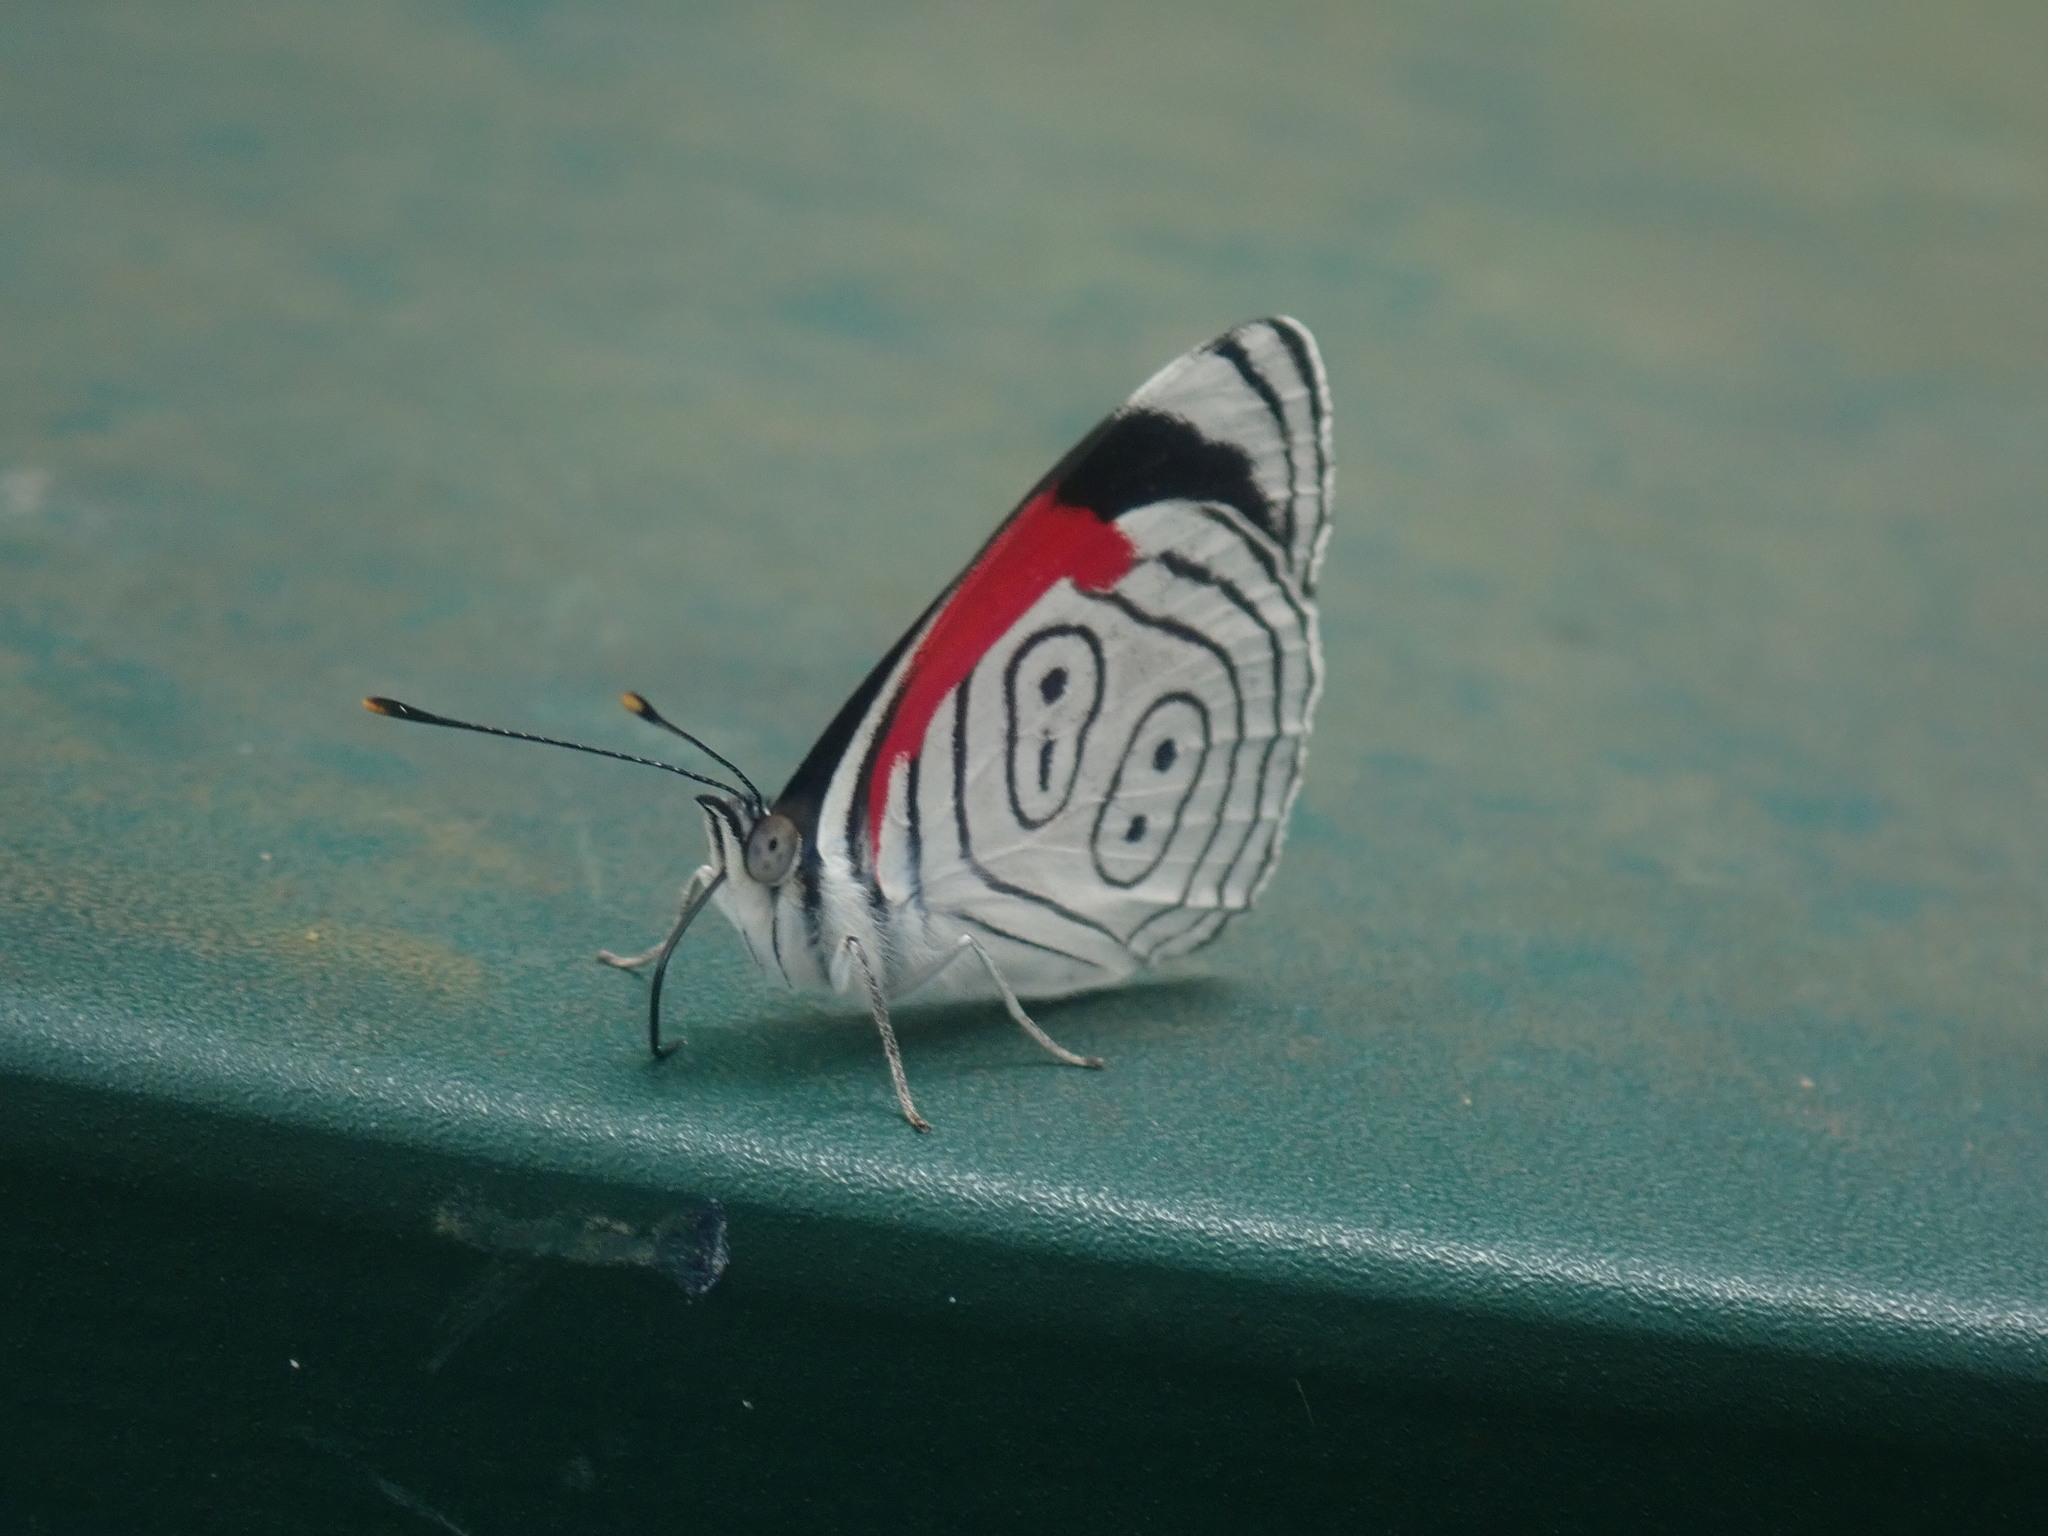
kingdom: Animalia
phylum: Arthropoda
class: Insecta
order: Lepidoptera
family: Nymphalidae
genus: Diaethria
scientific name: Diaethria anna
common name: Anna’s eighty-eight
